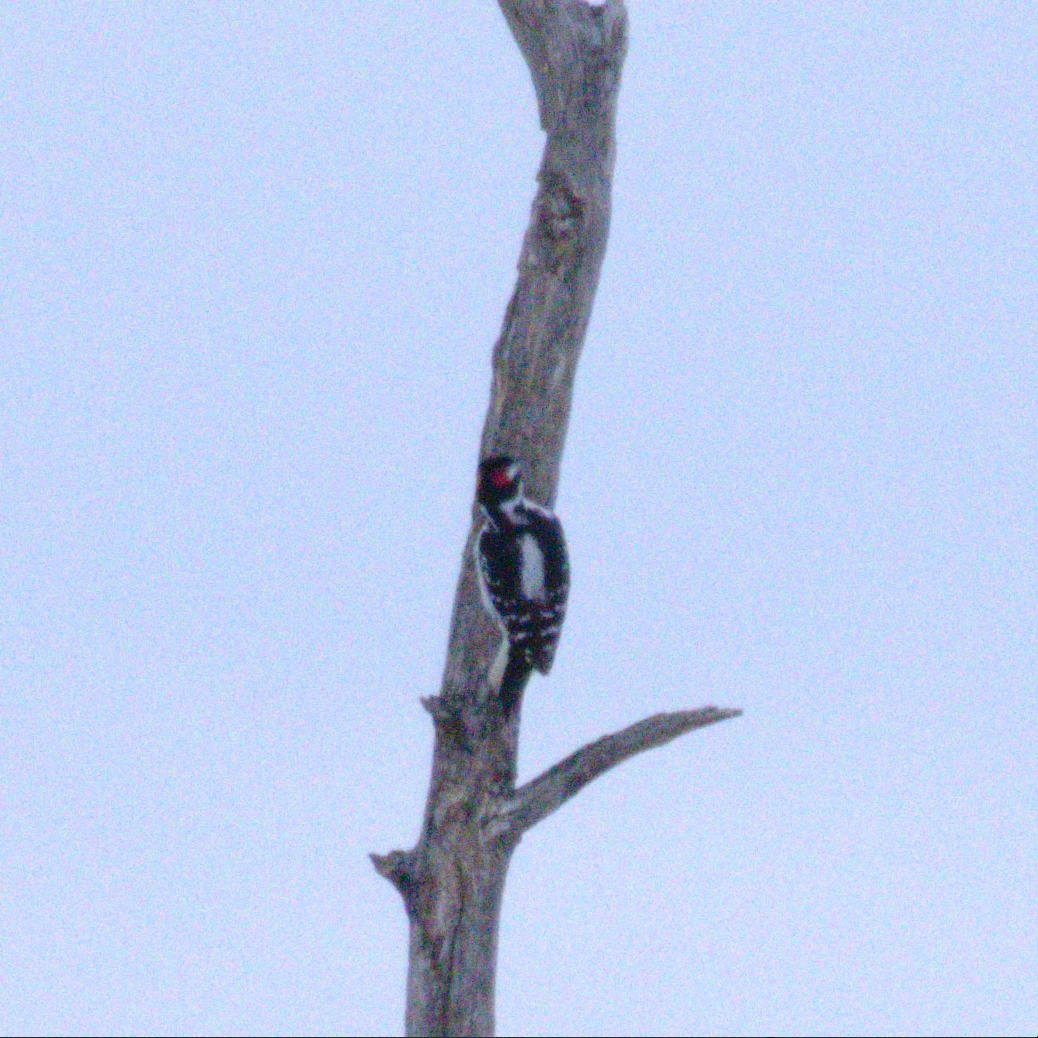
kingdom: Animalia
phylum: Chordata
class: Aves
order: Piciformes
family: Picidae
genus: Leuconotopicus
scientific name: Leuconotopicus villosus
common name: Hairy woodpecker
